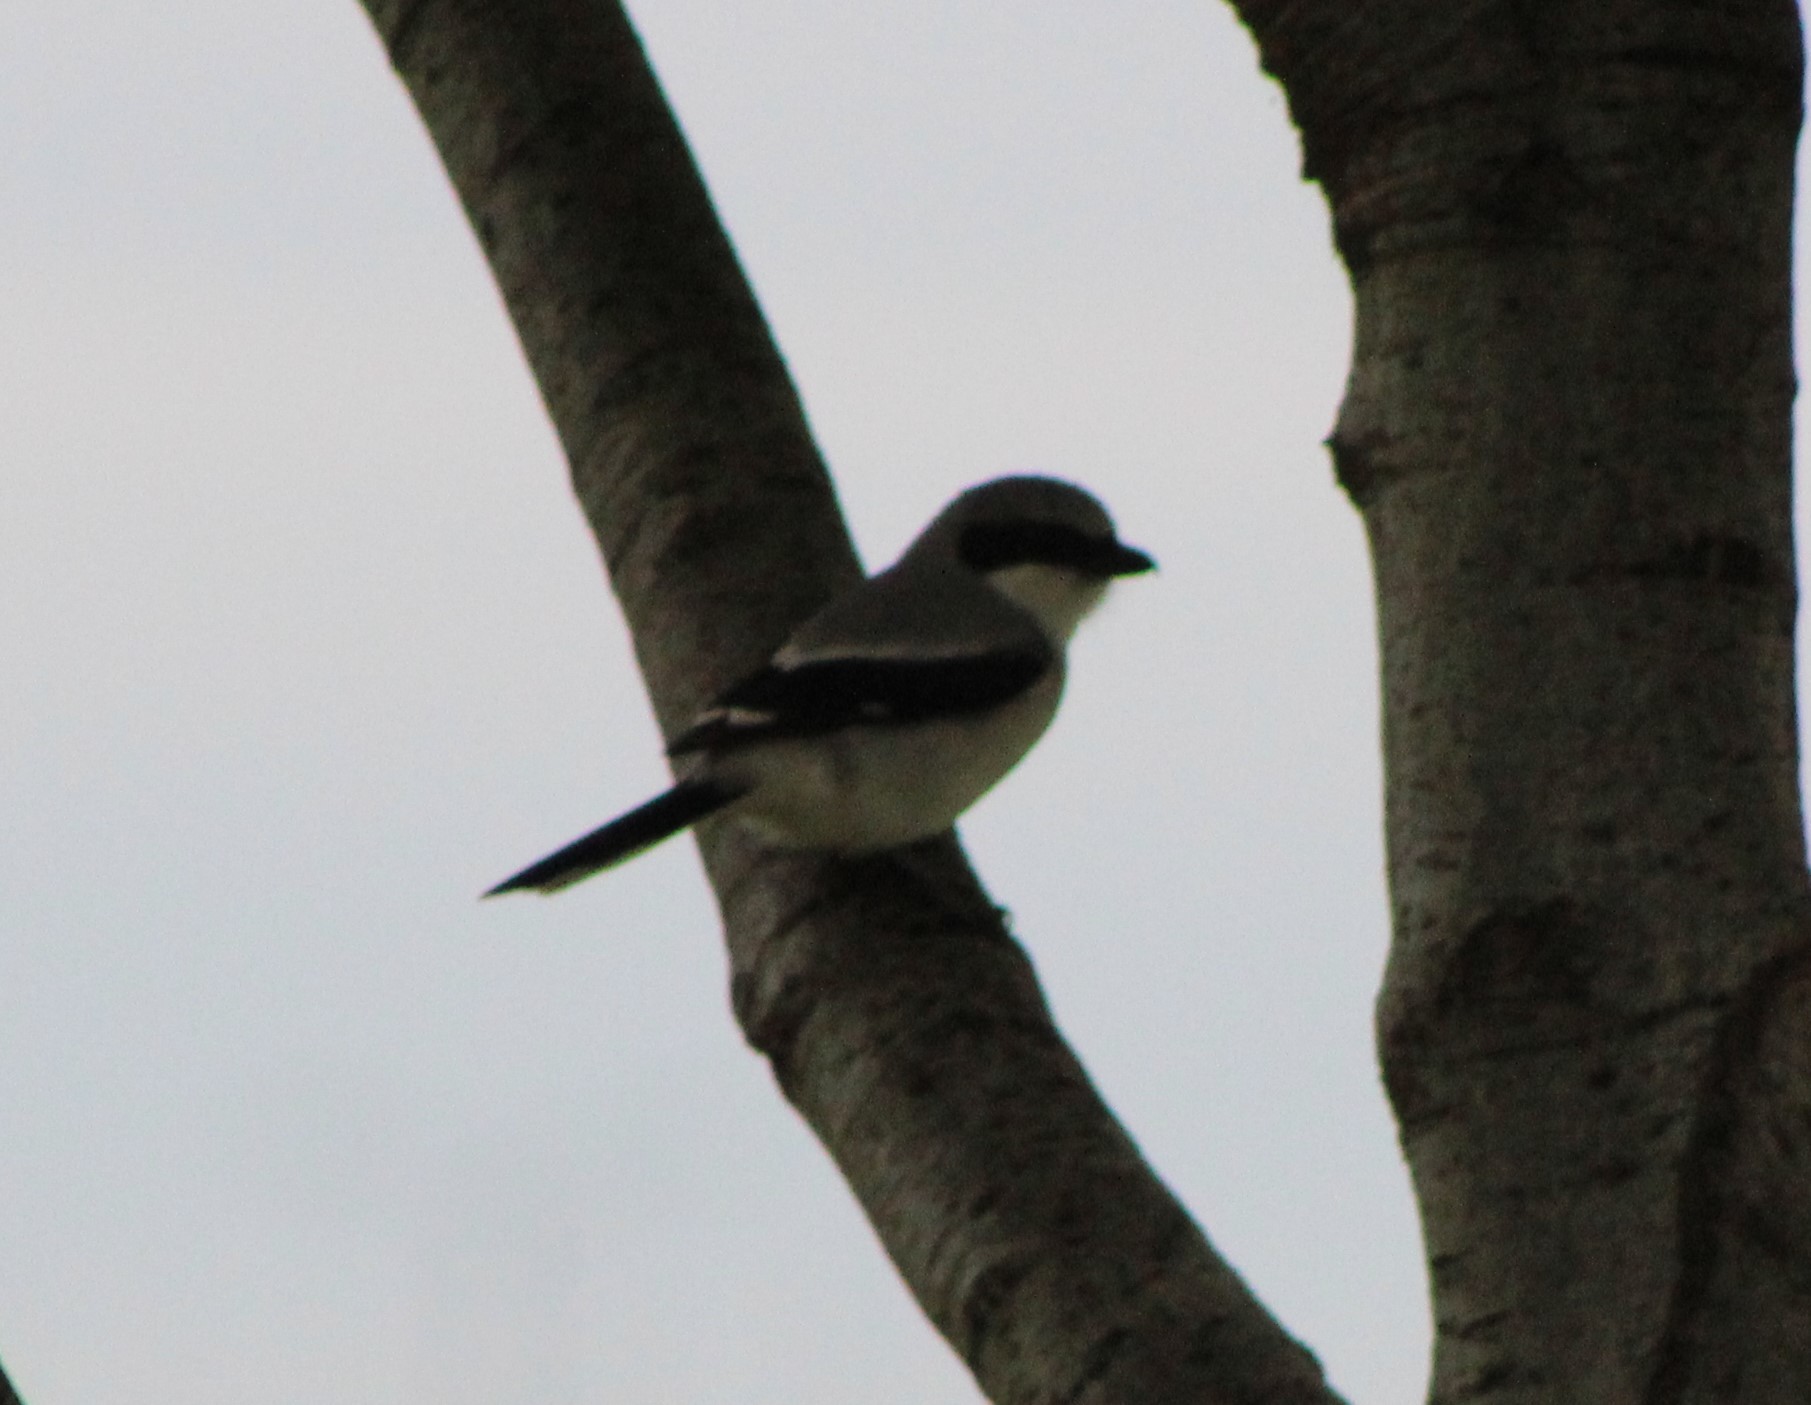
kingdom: Animalia
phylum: Chordata
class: Aves
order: Passeriformes
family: Laniidae
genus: Lanius
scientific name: Lanius ludovicianus
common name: Loggerhead shrike
